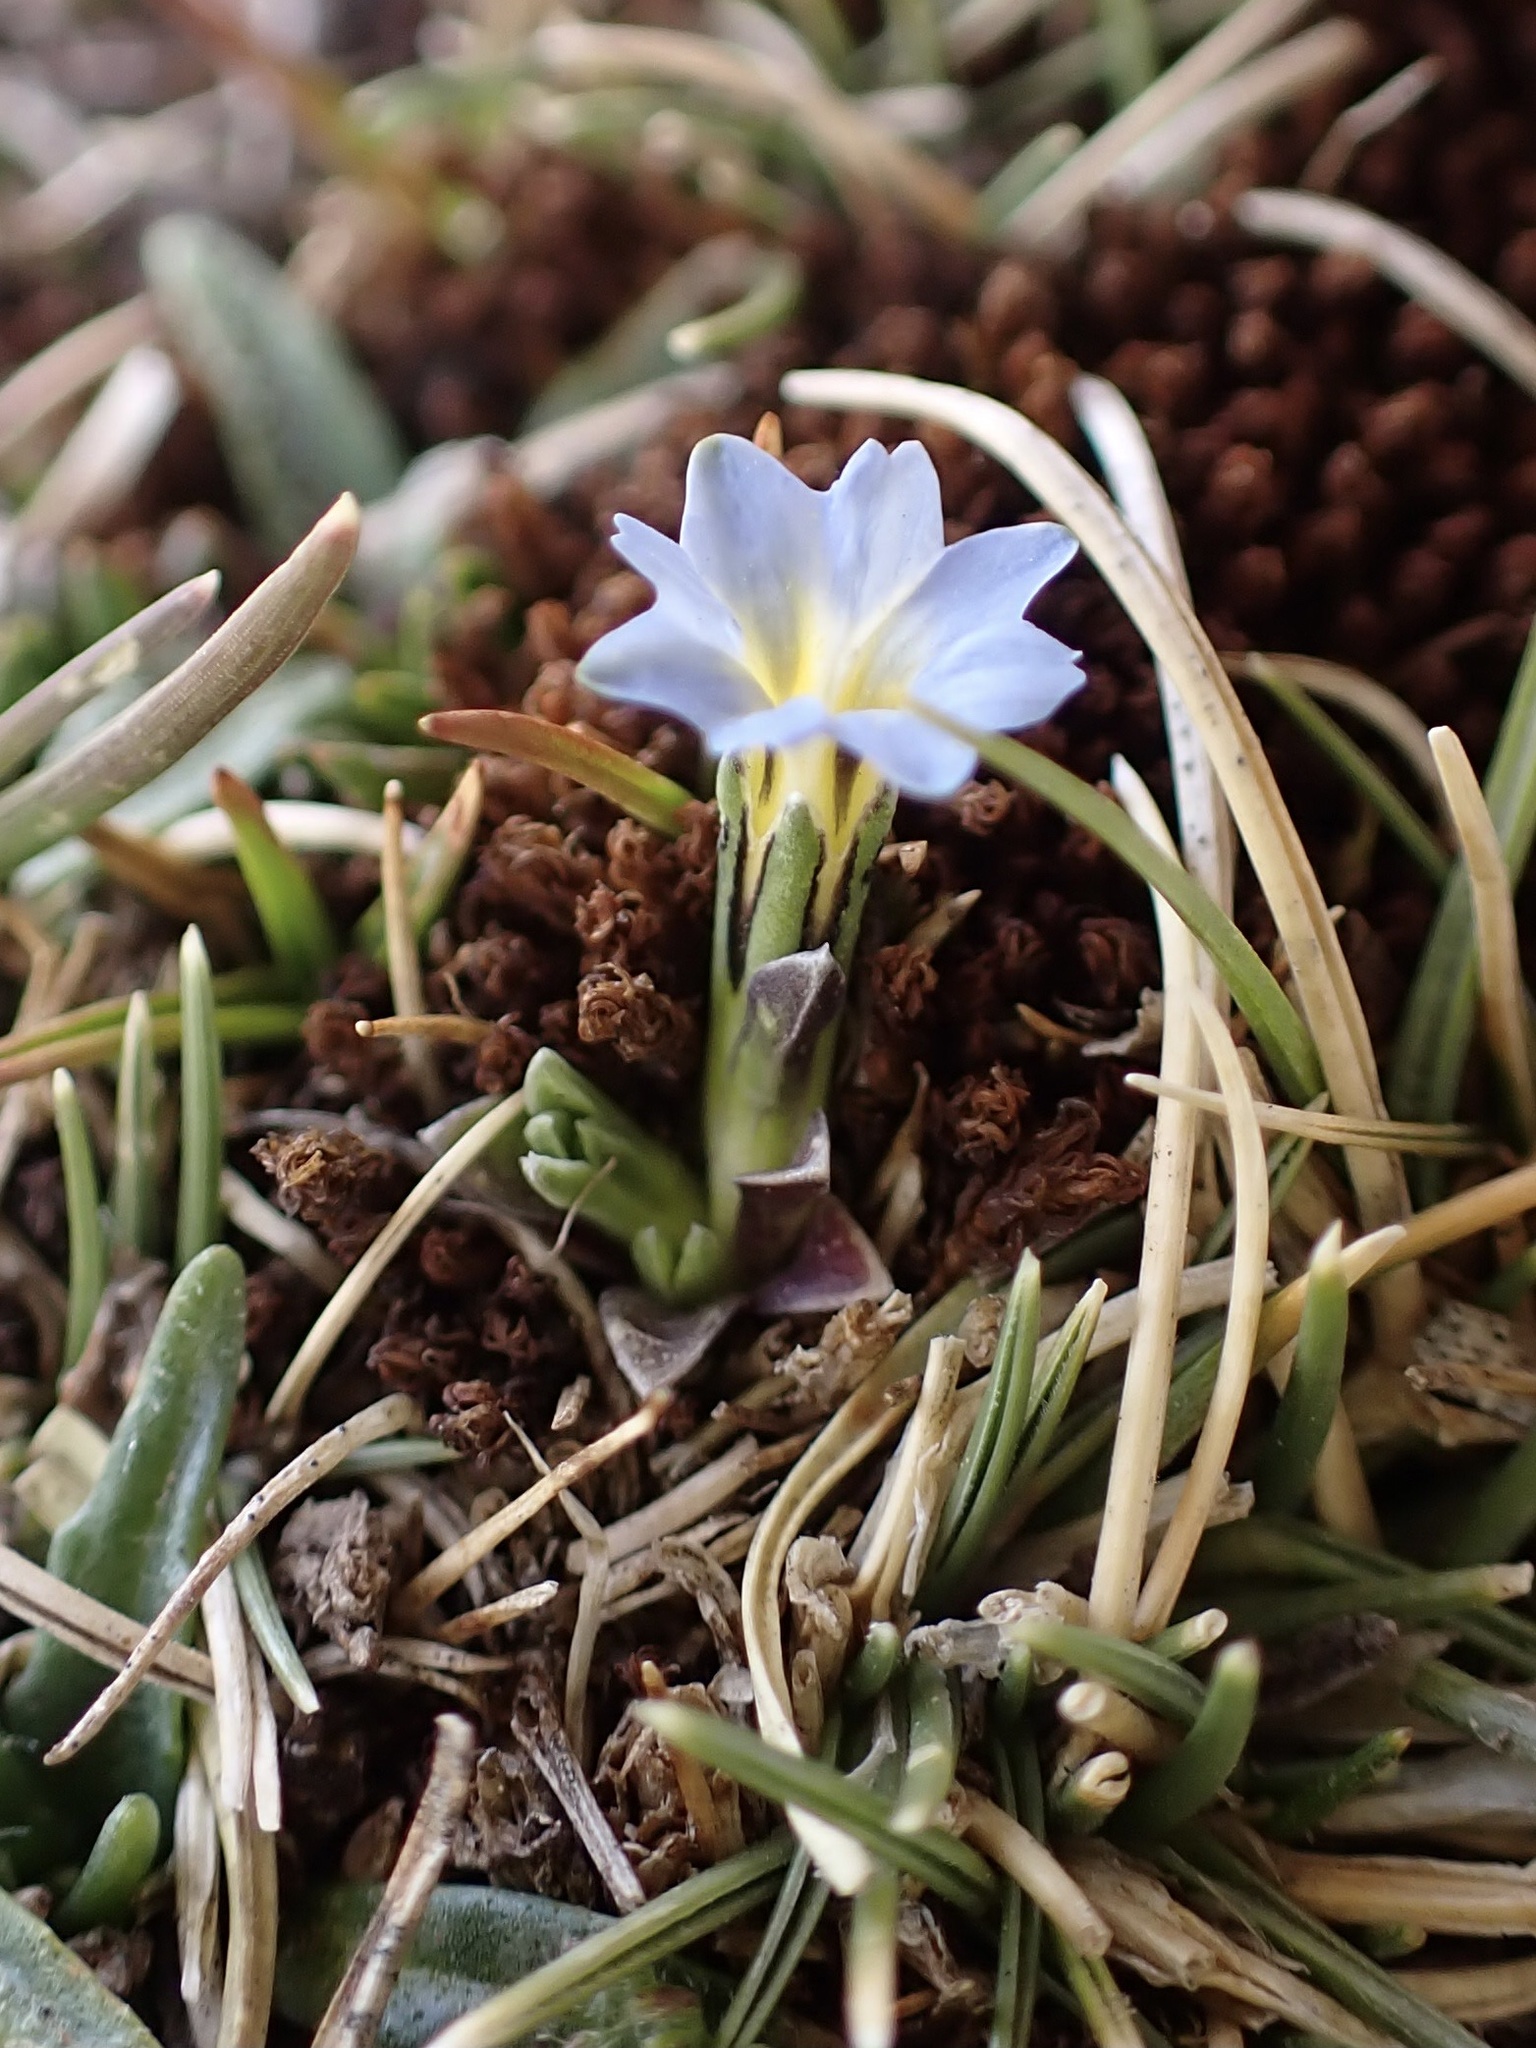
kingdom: Plantae
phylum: Tracheophyta
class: Magnoliopsida
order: Gentianales
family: Gentianaceae
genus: Gentiana
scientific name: Gentiana sedifolia
